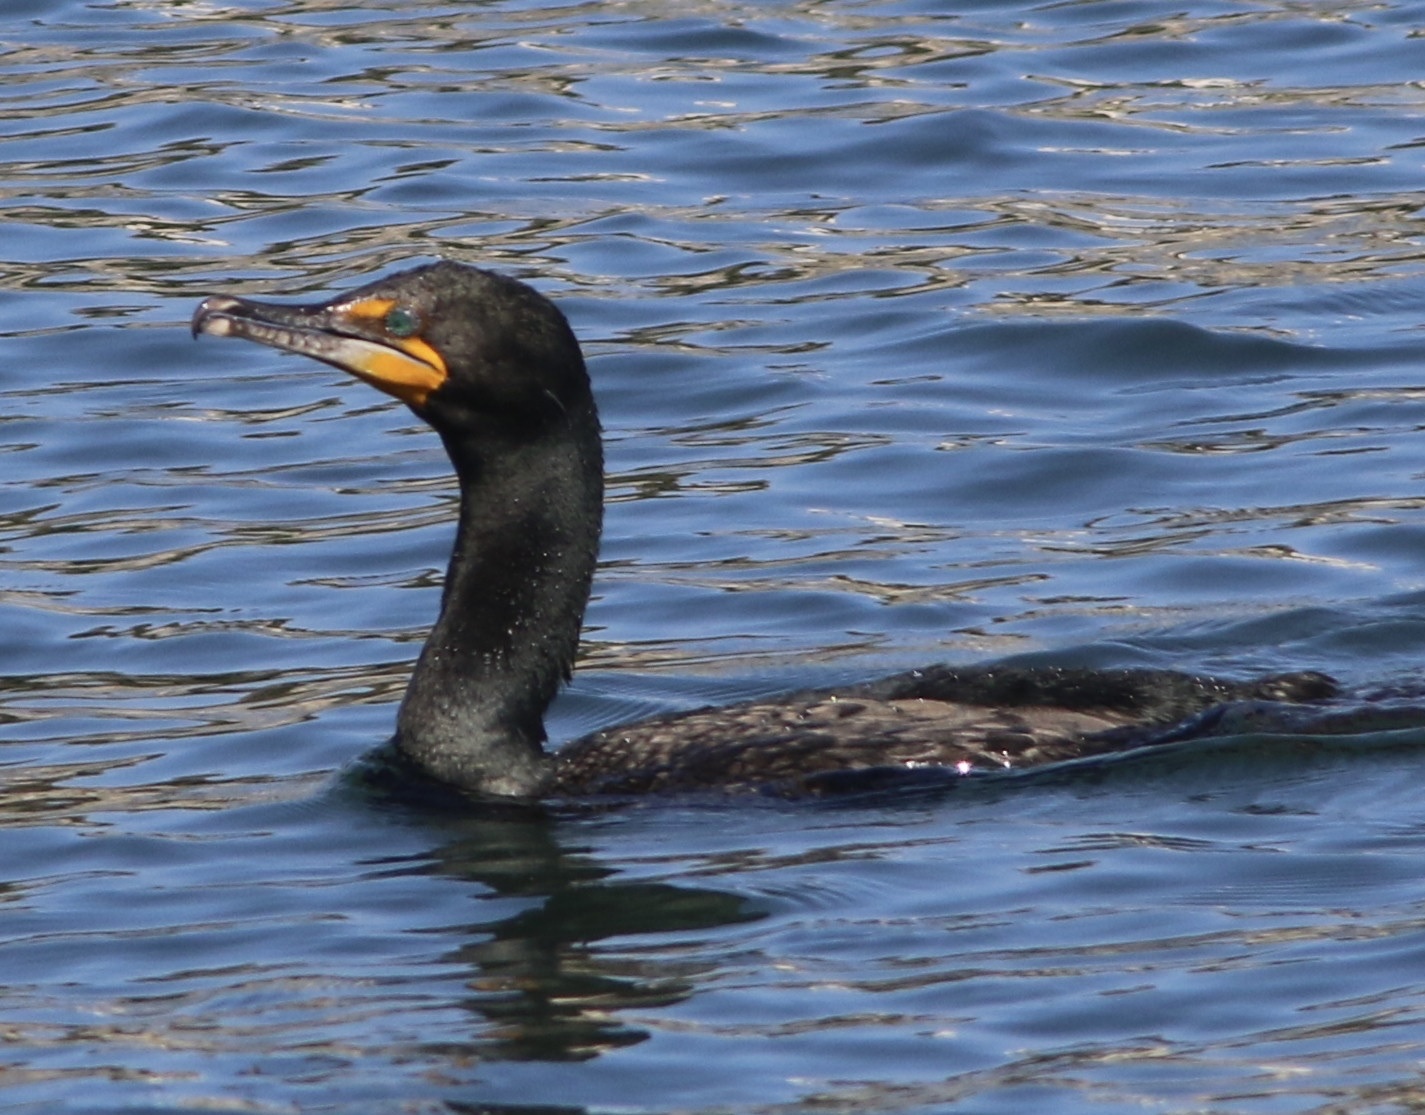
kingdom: Animalia
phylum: Chordata
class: Aves
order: Suliformes
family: Phalacrocoracidae
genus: Phalacrocorax
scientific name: Phalacrocorax auritus
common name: Double-crested cormorant
